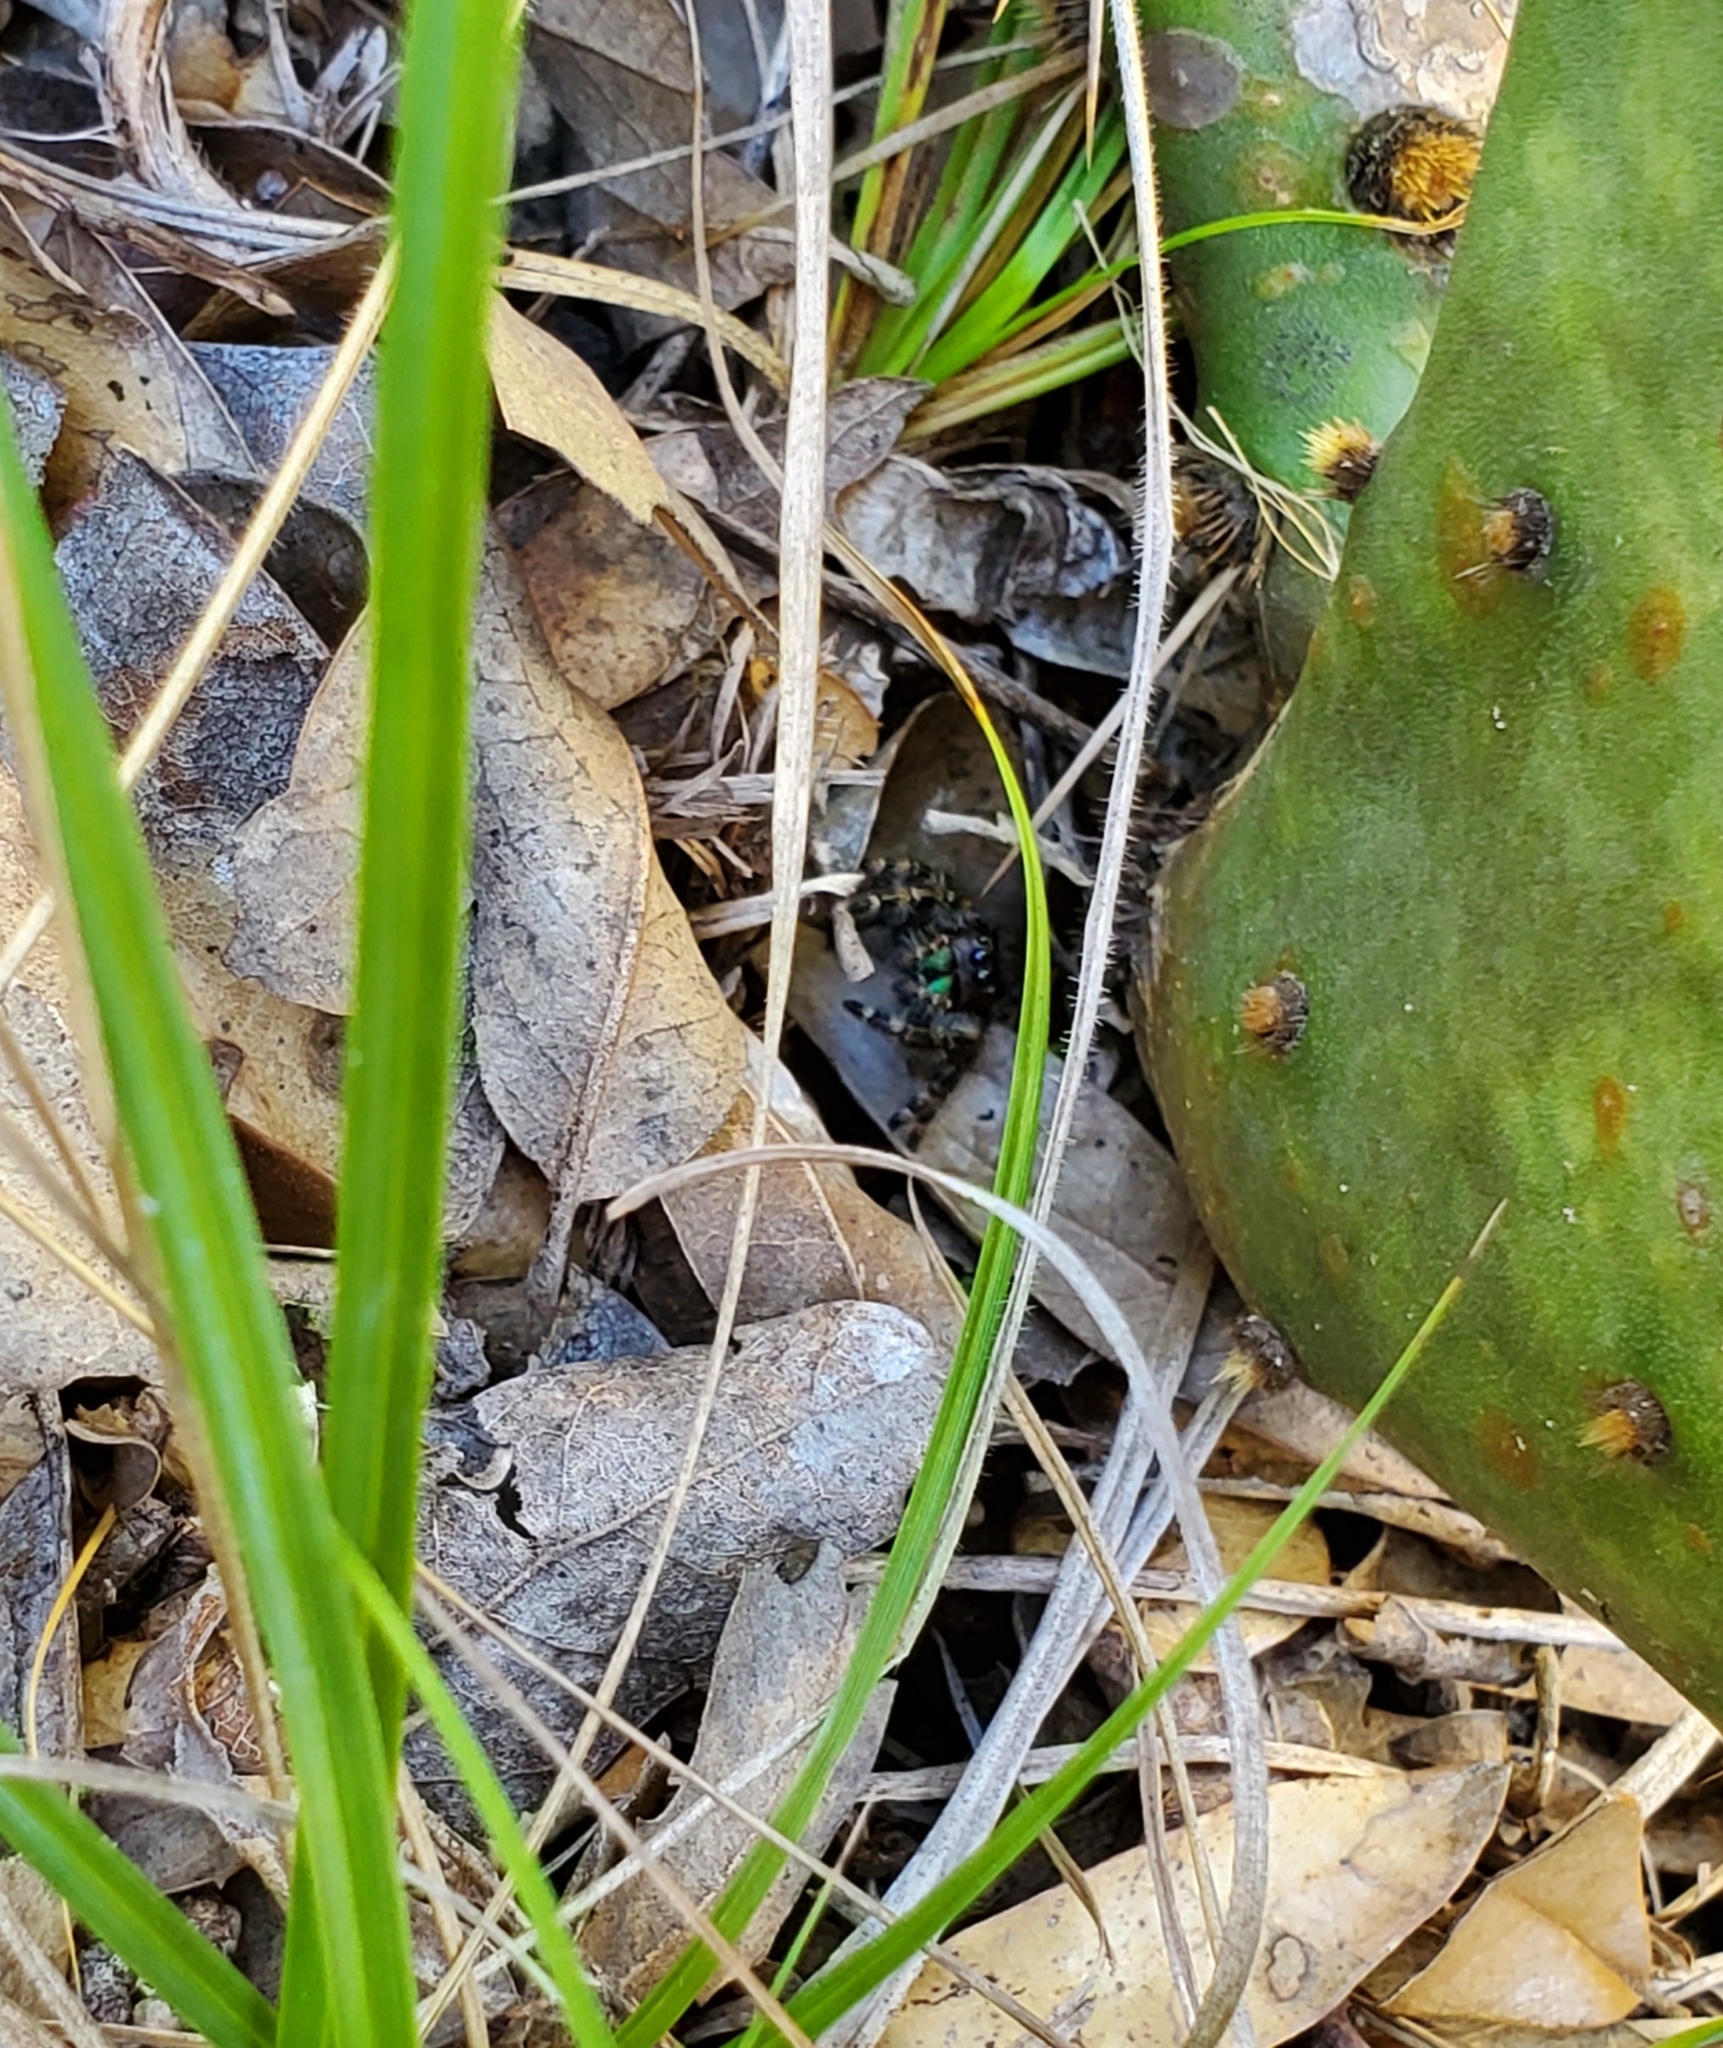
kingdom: Animalia
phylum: Arthropoda
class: Arachnida
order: Araneae
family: Salticidae
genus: Phidippus
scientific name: Phidippus audax
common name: Bold jumper
